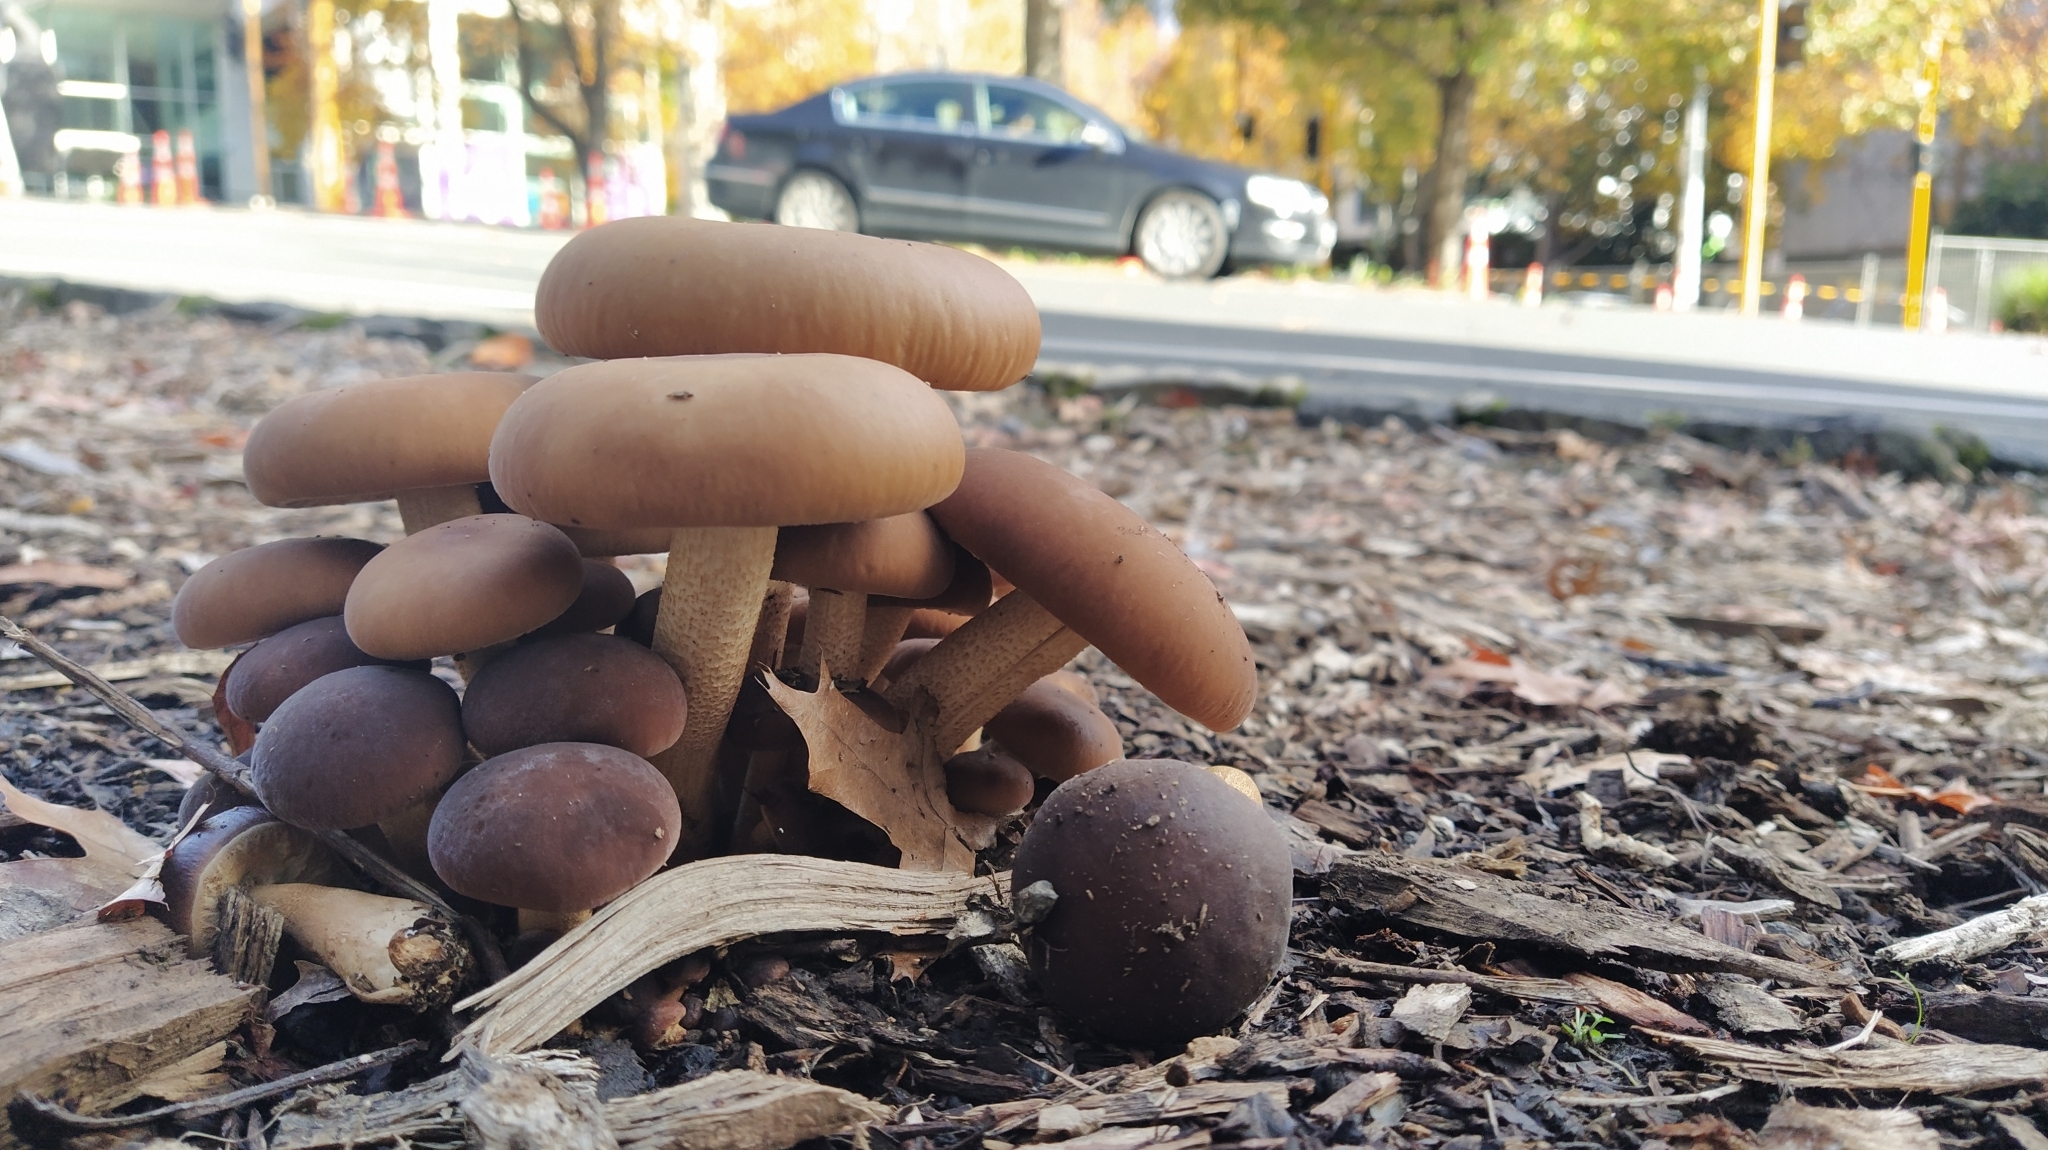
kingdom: Fungi
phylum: Basidiomycota
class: Agaricomycetes
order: Agaricales
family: Tubariaceae
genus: Cyclocybe
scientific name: Cyclocybe parasitica
